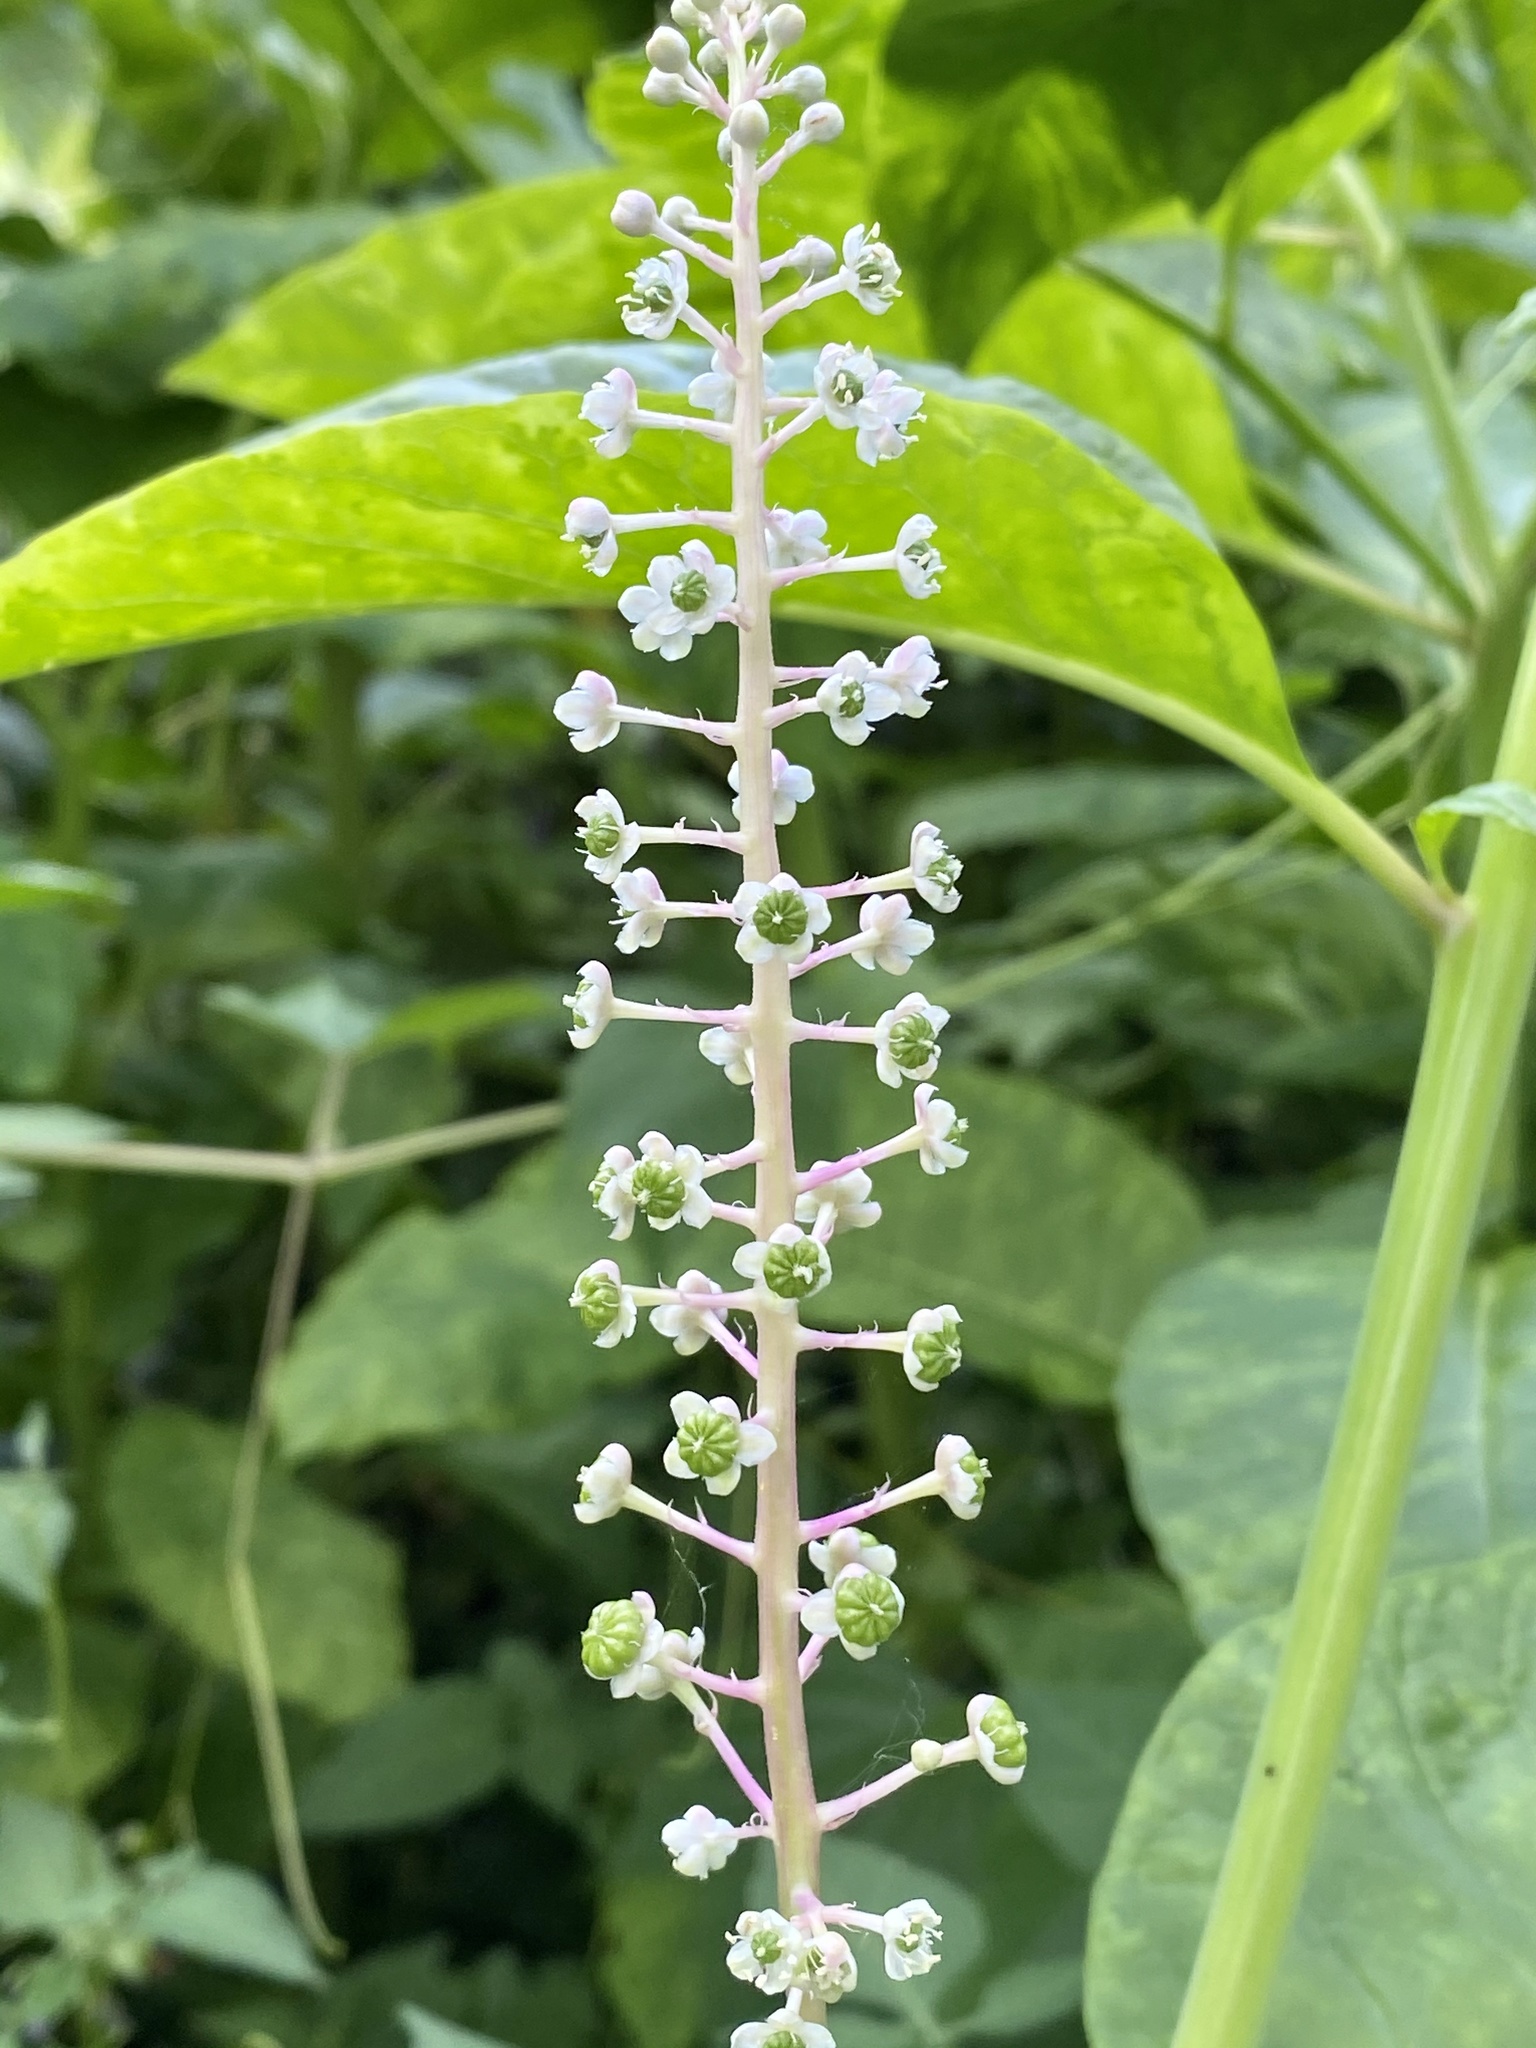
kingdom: Plantae
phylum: Tracheophyta
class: Magnoliopsida
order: Caryophyllales
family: Phytolaccaceae
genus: Phytolacca
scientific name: Phytolacca americana
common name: American pokeweed
